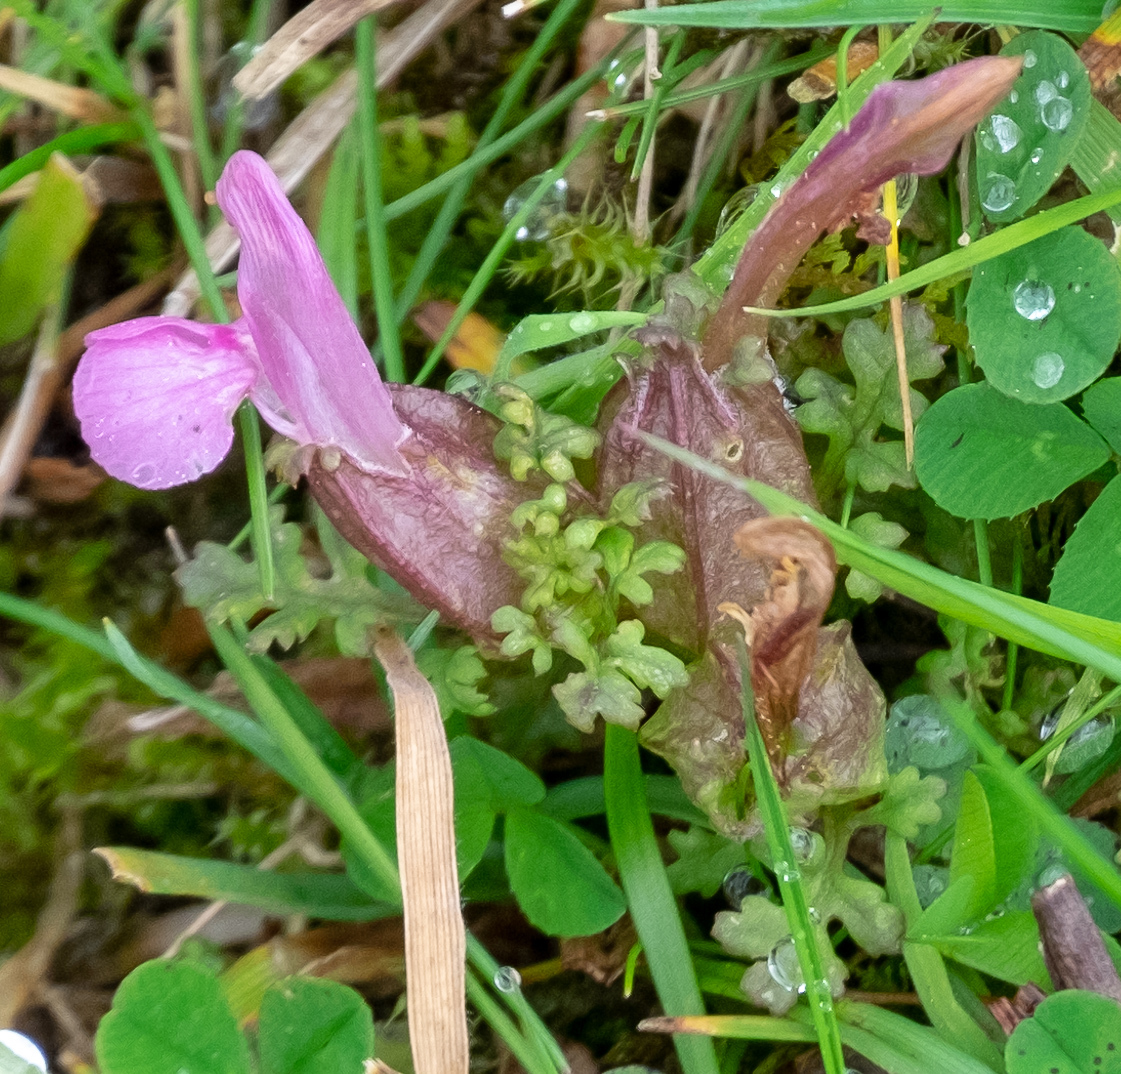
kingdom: Plantae
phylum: Tracheophyta
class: Magnoliopsida
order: Lamiales
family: Orobanchaceae
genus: Pedicularis
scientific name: Pedicularis sylvatica
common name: Lousewort
